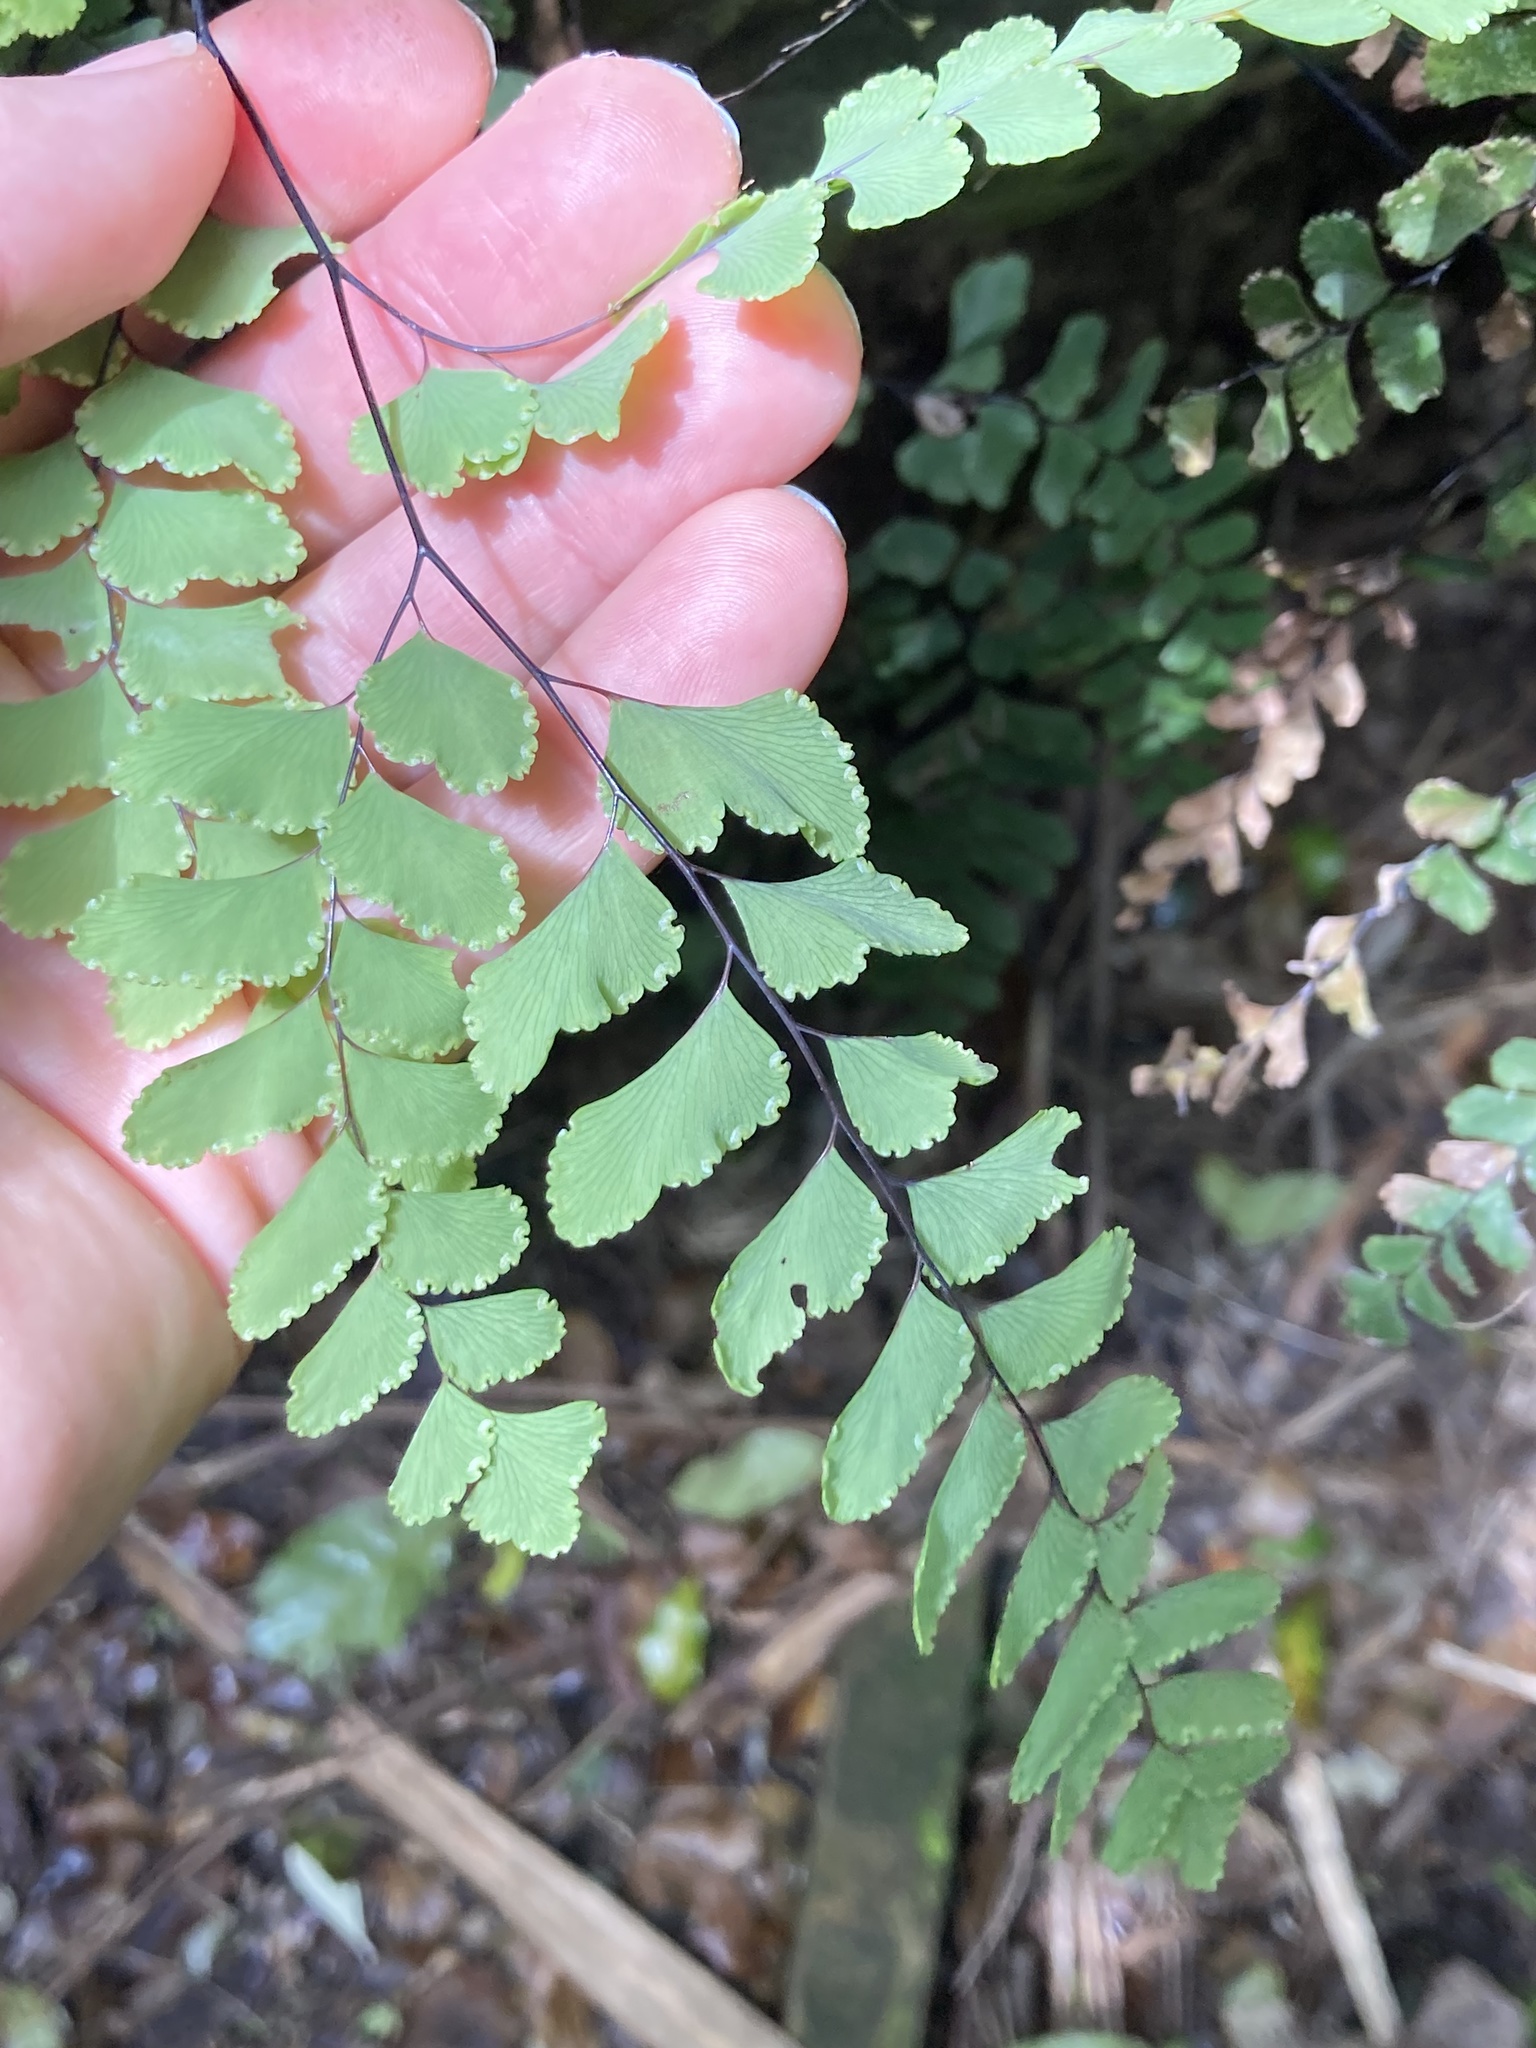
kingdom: Plantae
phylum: Tracheophyta
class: Polypodiopsida
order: Polypodiales
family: Pteridaceae
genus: Adiantum
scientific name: Adiantum cunninghamii
